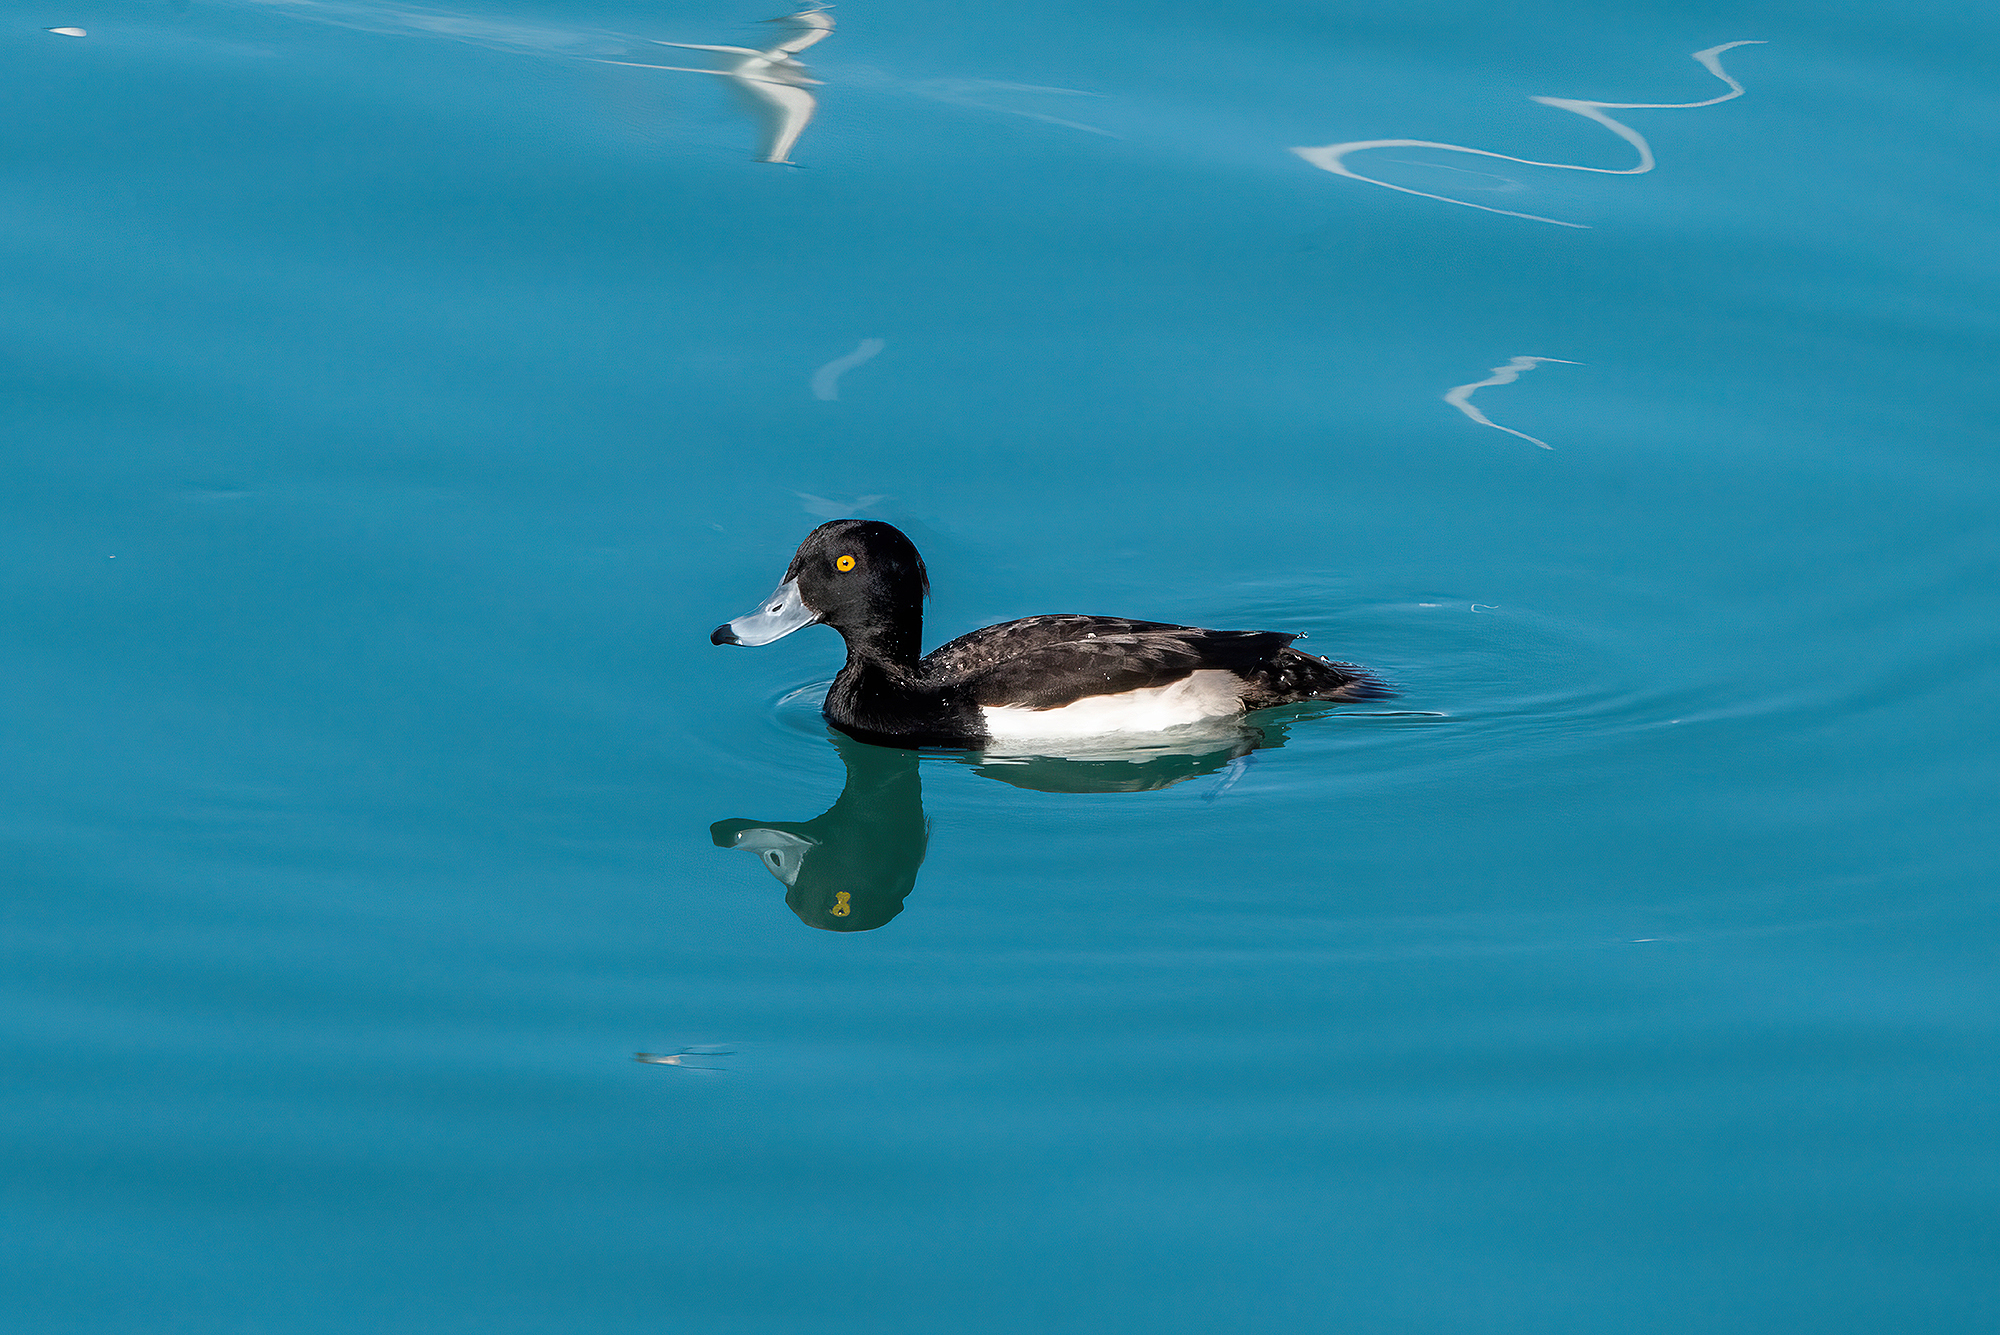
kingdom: Animalia
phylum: Chordata
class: Aves
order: Anseriformes
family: Anatidae
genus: Aythya
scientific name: Aythya fuligula
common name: Tufted duck
